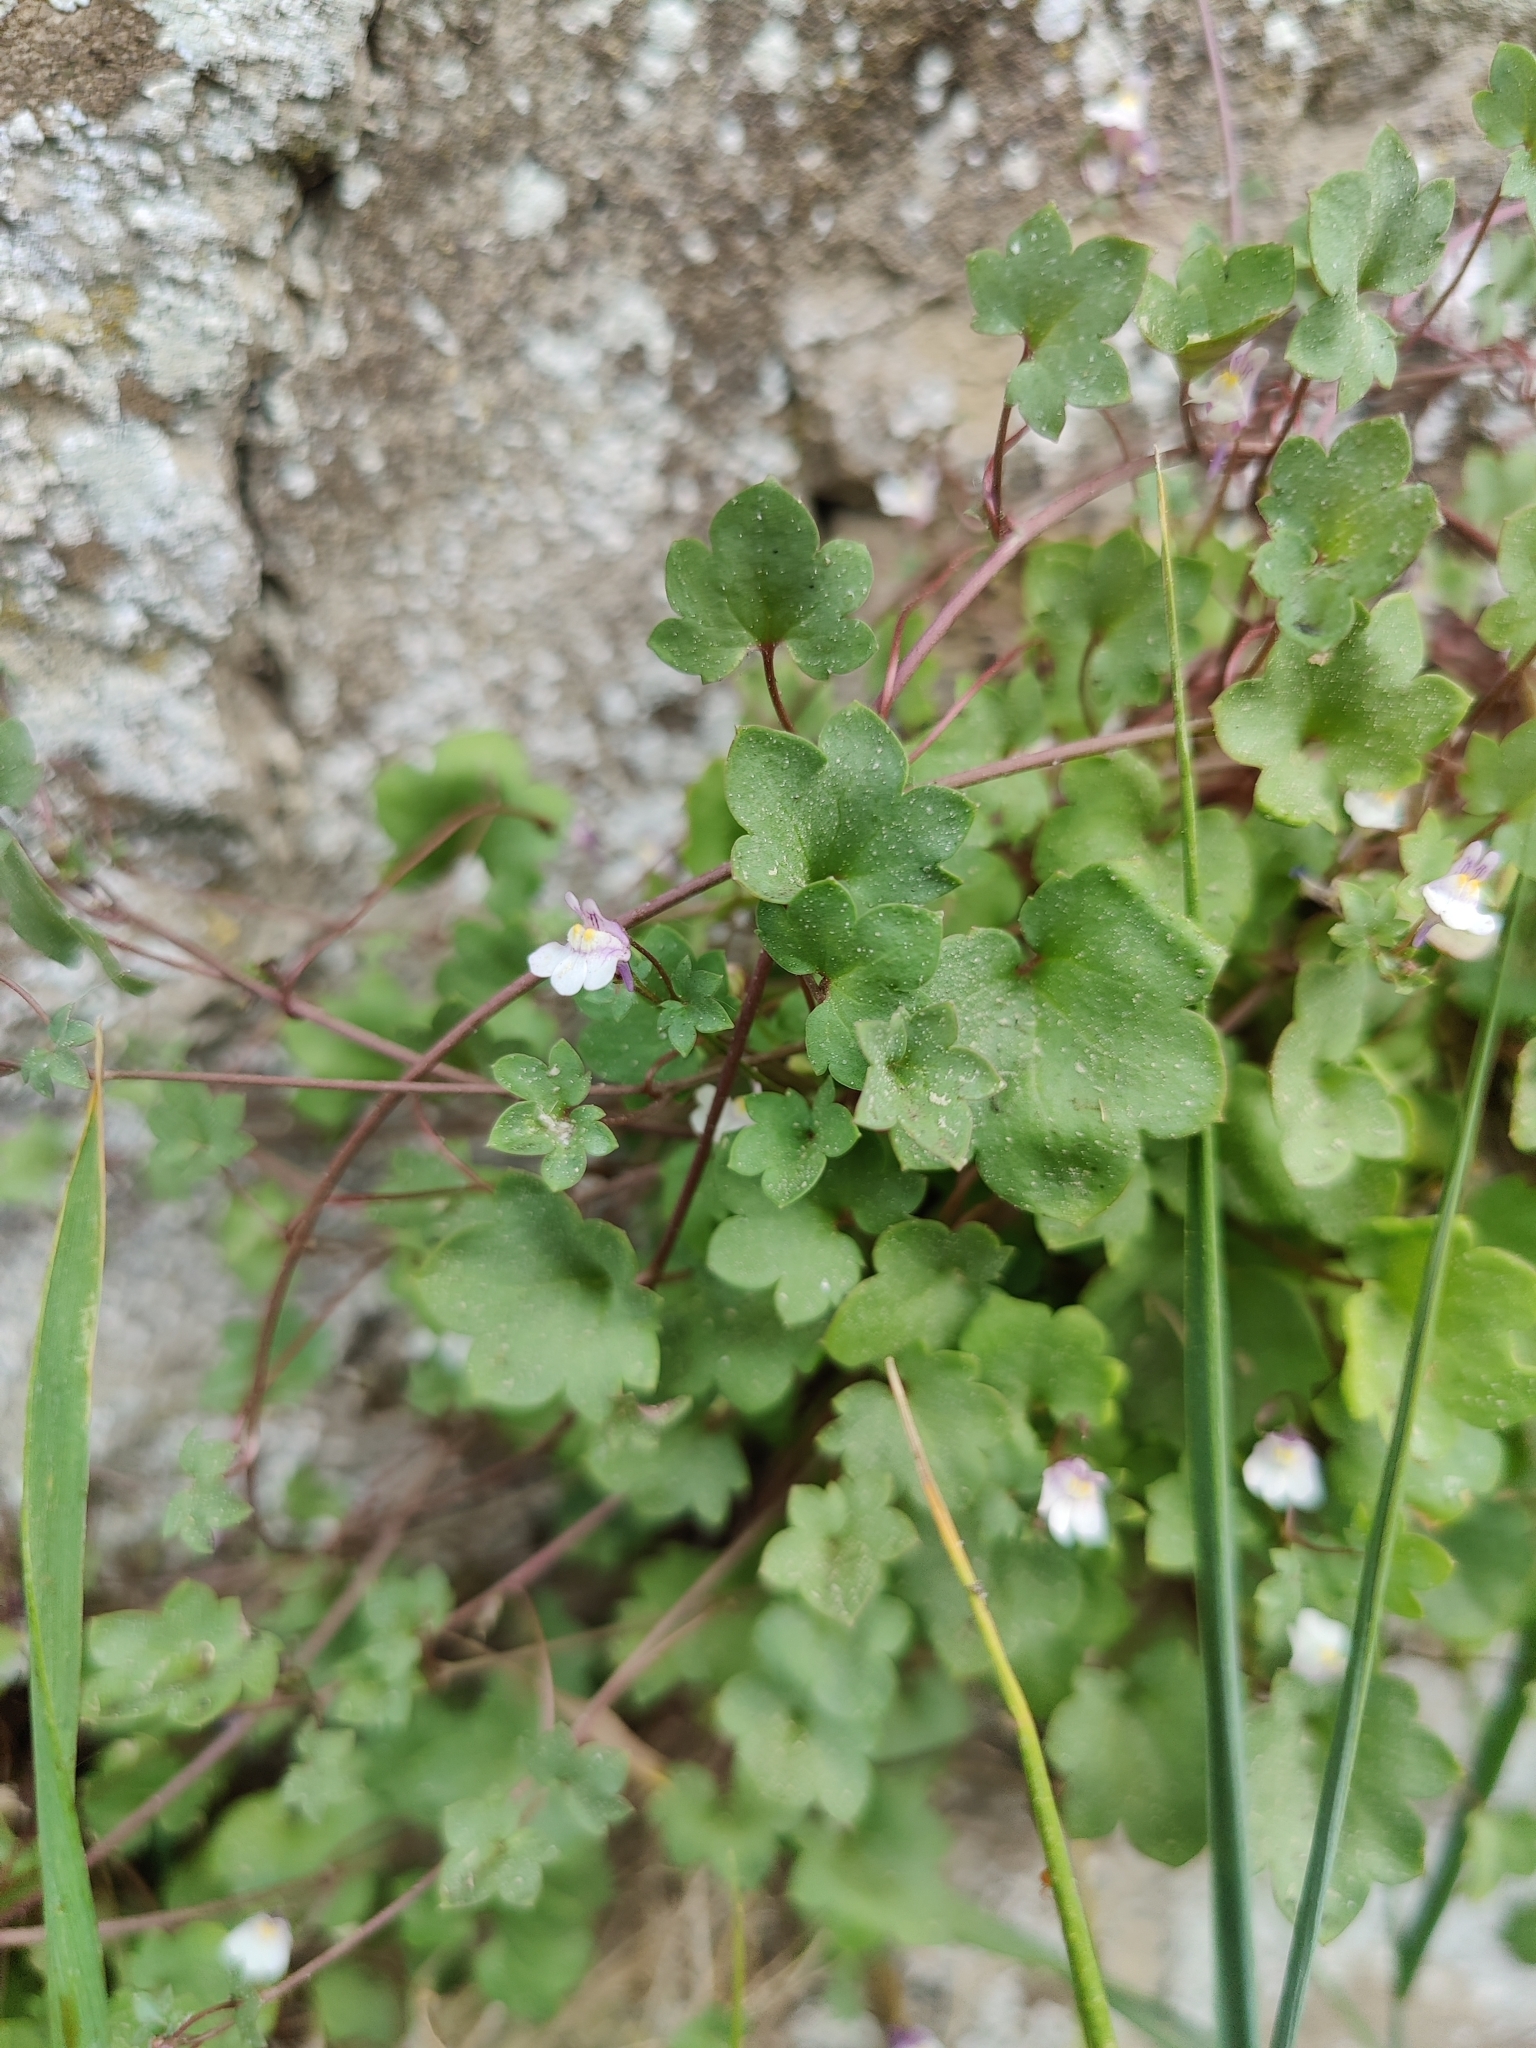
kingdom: Plantae
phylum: Tracheophyta
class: Magnoliopsida
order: Lamiales
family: Plantaginaceae
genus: Cymbalaria
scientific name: Cymbalaria muralis
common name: Ivy-leaved toadflax
